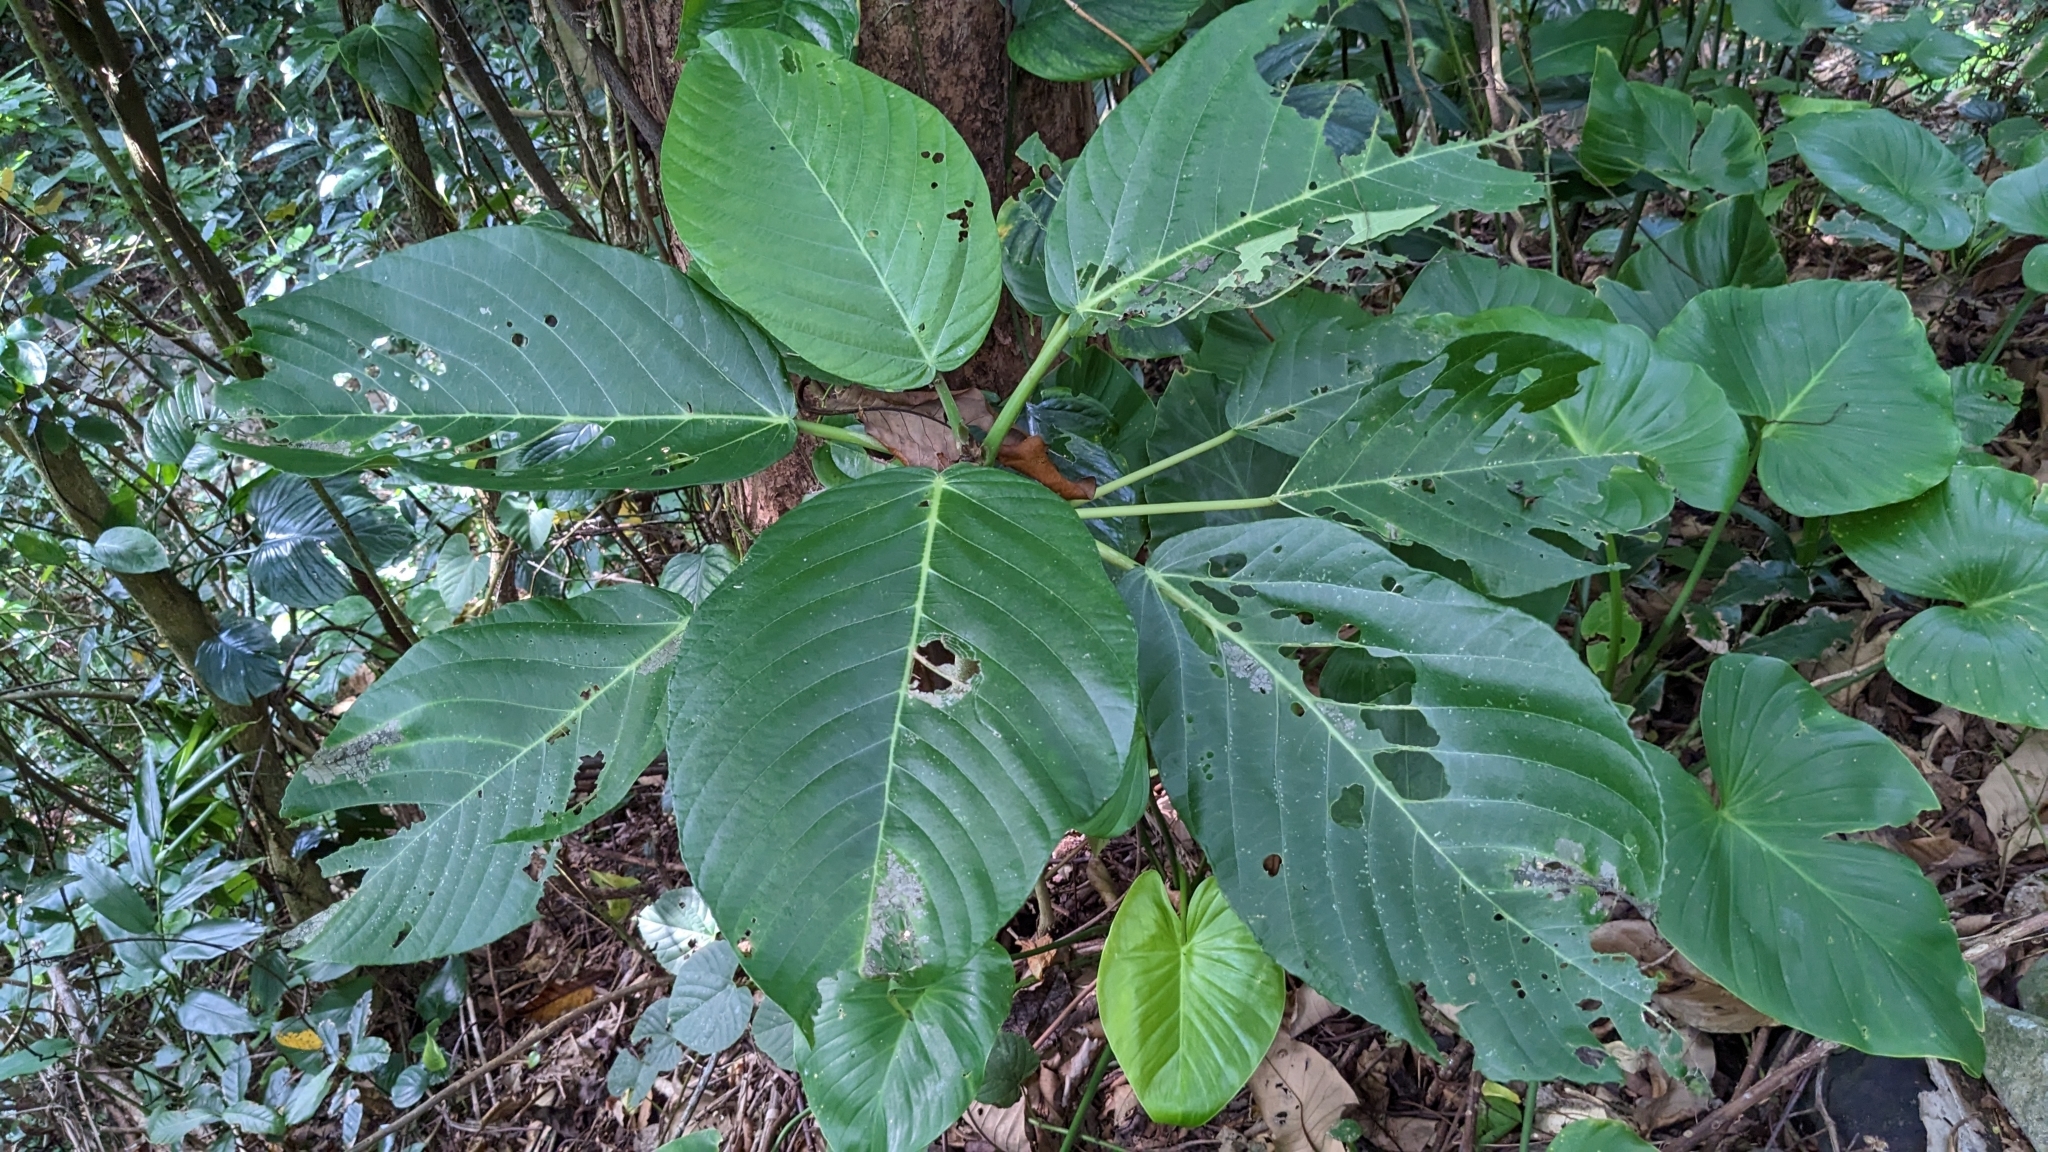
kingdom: Plantae
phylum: Tracheophyta
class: Magnoliopsida
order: Rosales
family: Urticaceae
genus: Dendrocnide
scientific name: Dendrocnide kotoensis
